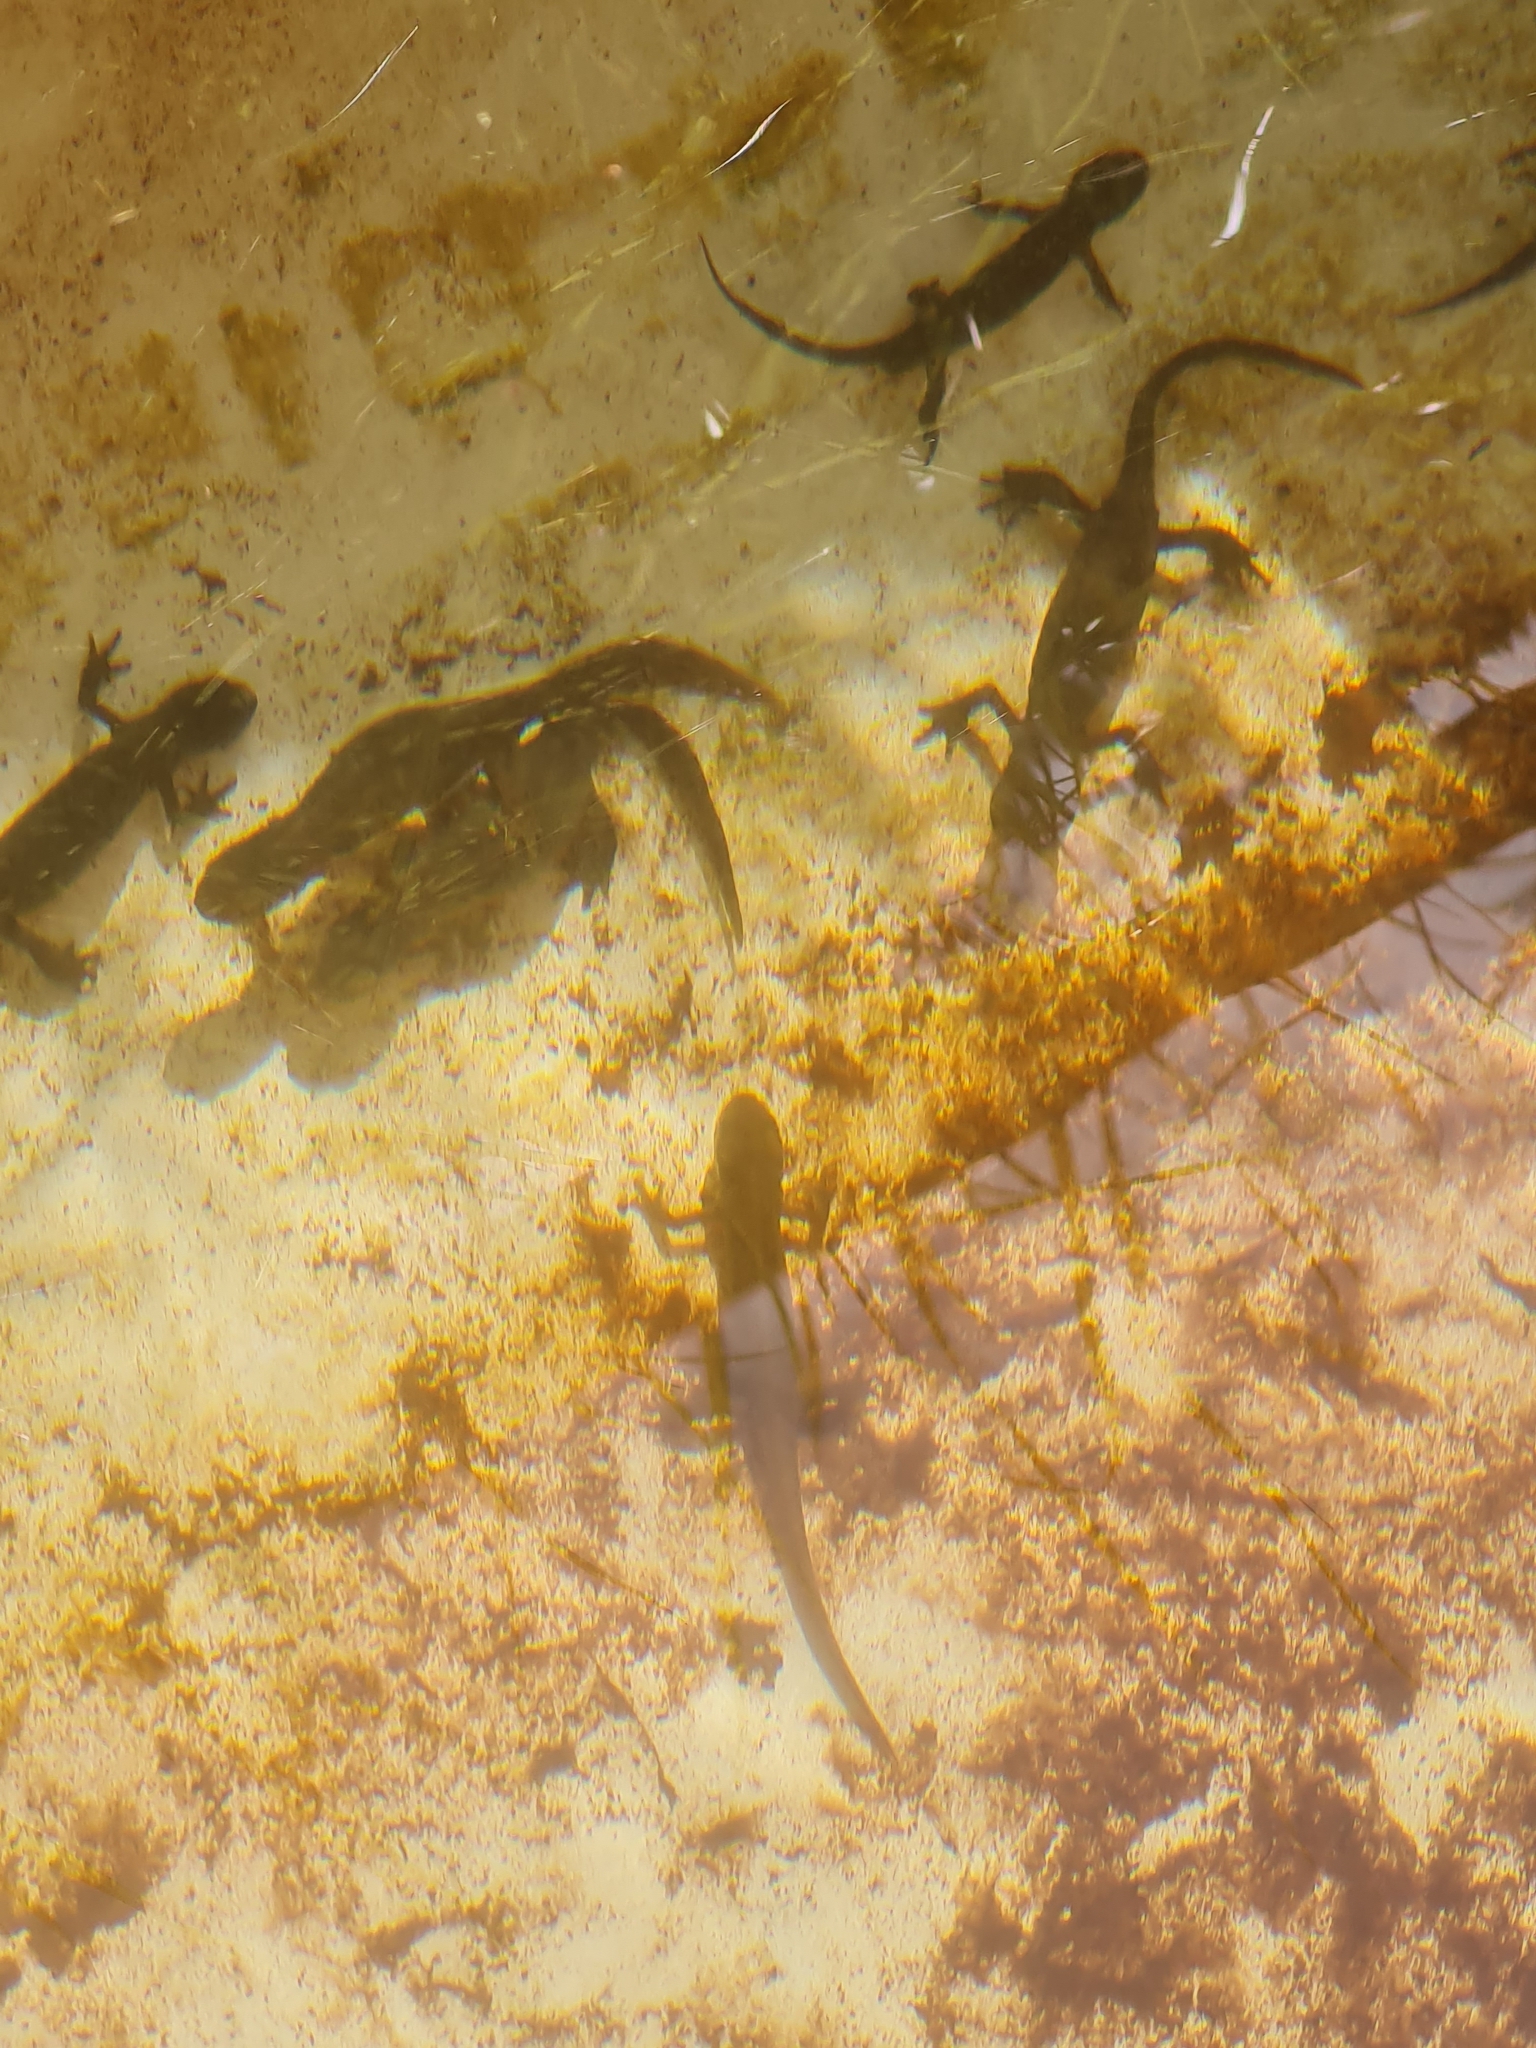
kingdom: Animalia
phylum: Chordata
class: Amphibia
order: Caudata
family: Salamandridae
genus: Ichthyosaura
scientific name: Ichthyosaura alpestris
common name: Alpine newt
